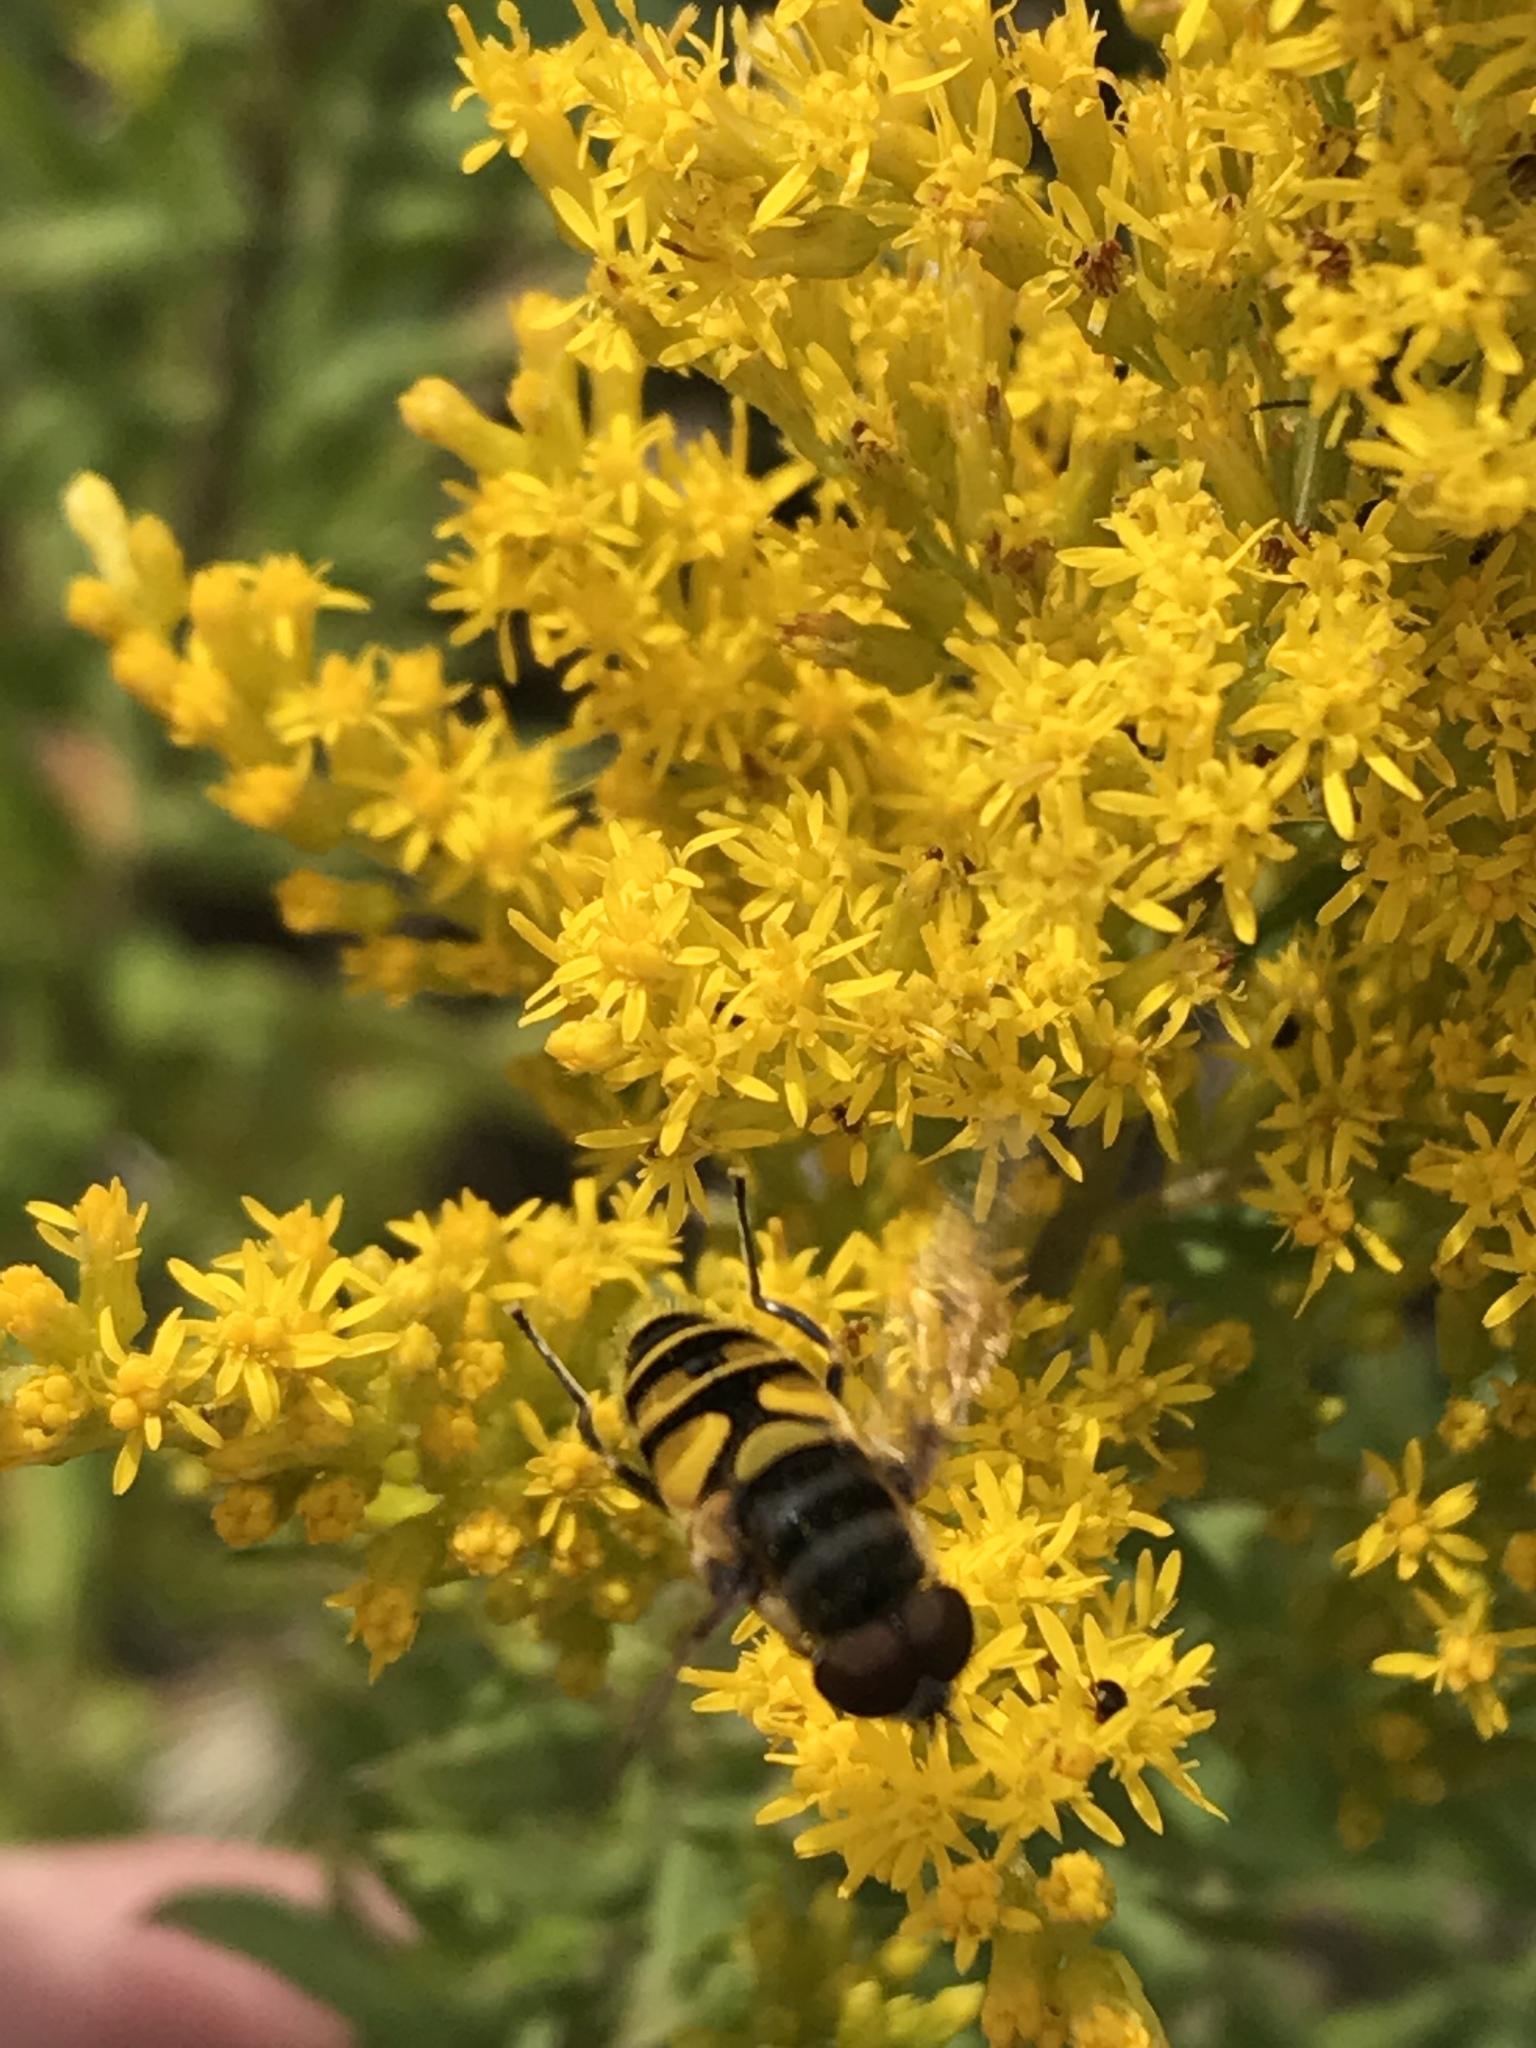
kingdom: Animalia
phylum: Arthropoda
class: Insecta
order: Diptera
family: Syrphidae
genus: Eristalis
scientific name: Eristalis transversa
